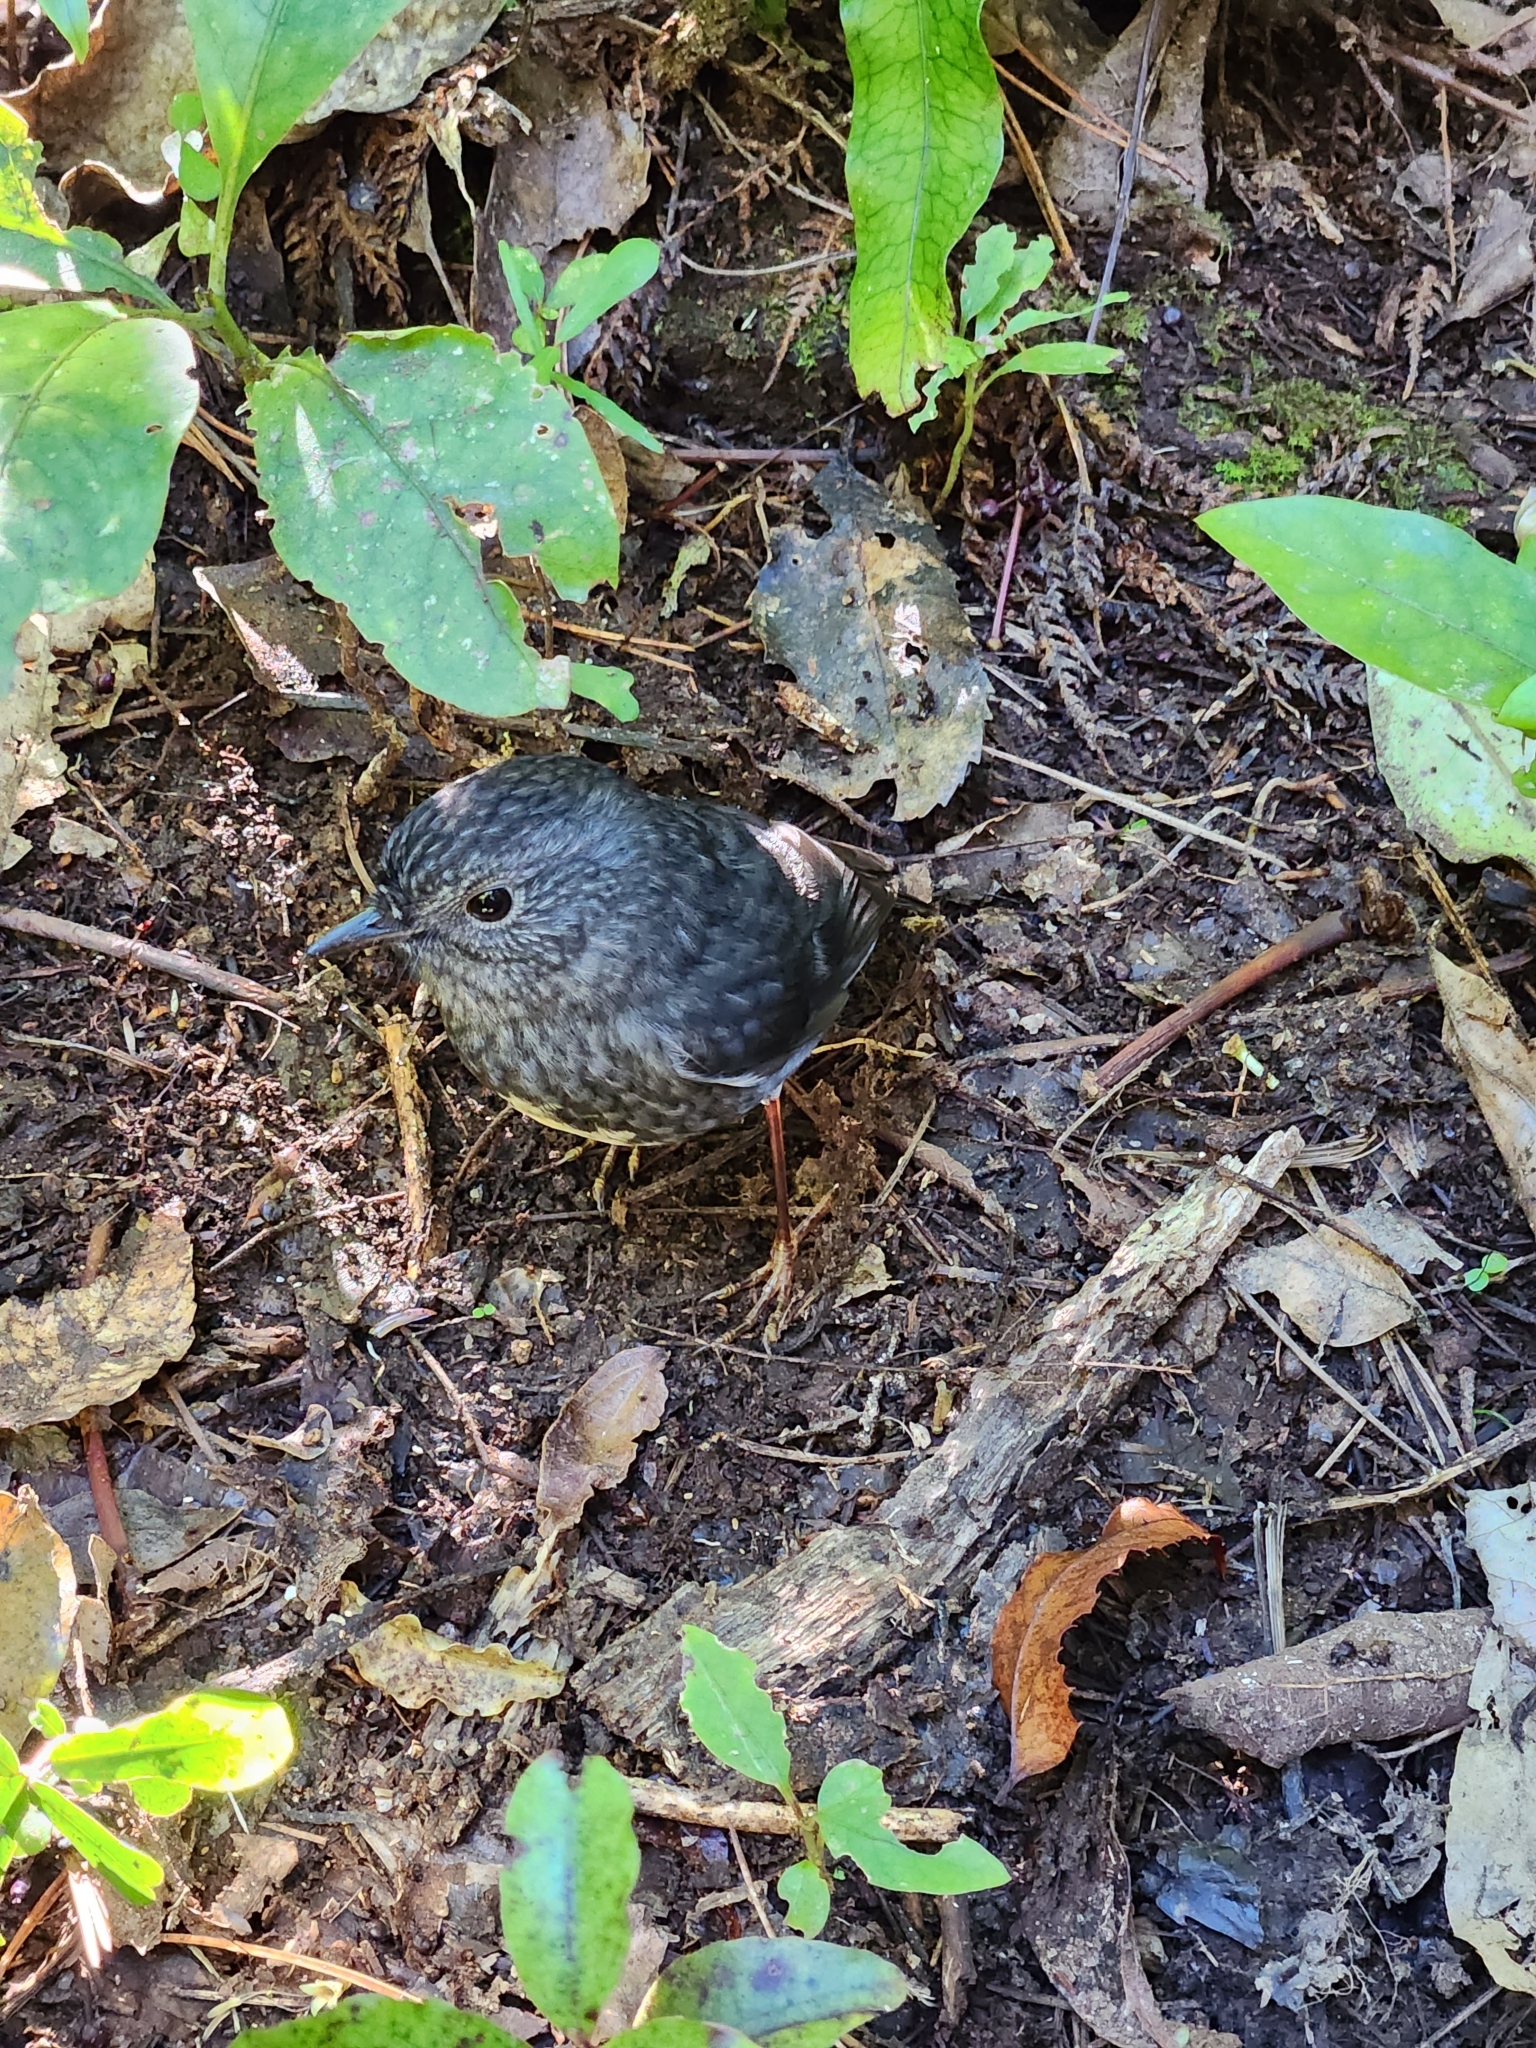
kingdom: Animalia
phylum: Chordata
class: Aves
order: Passeriformes
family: Petroicidae
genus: Petroica
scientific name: Petroica australis
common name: New zealand robin
